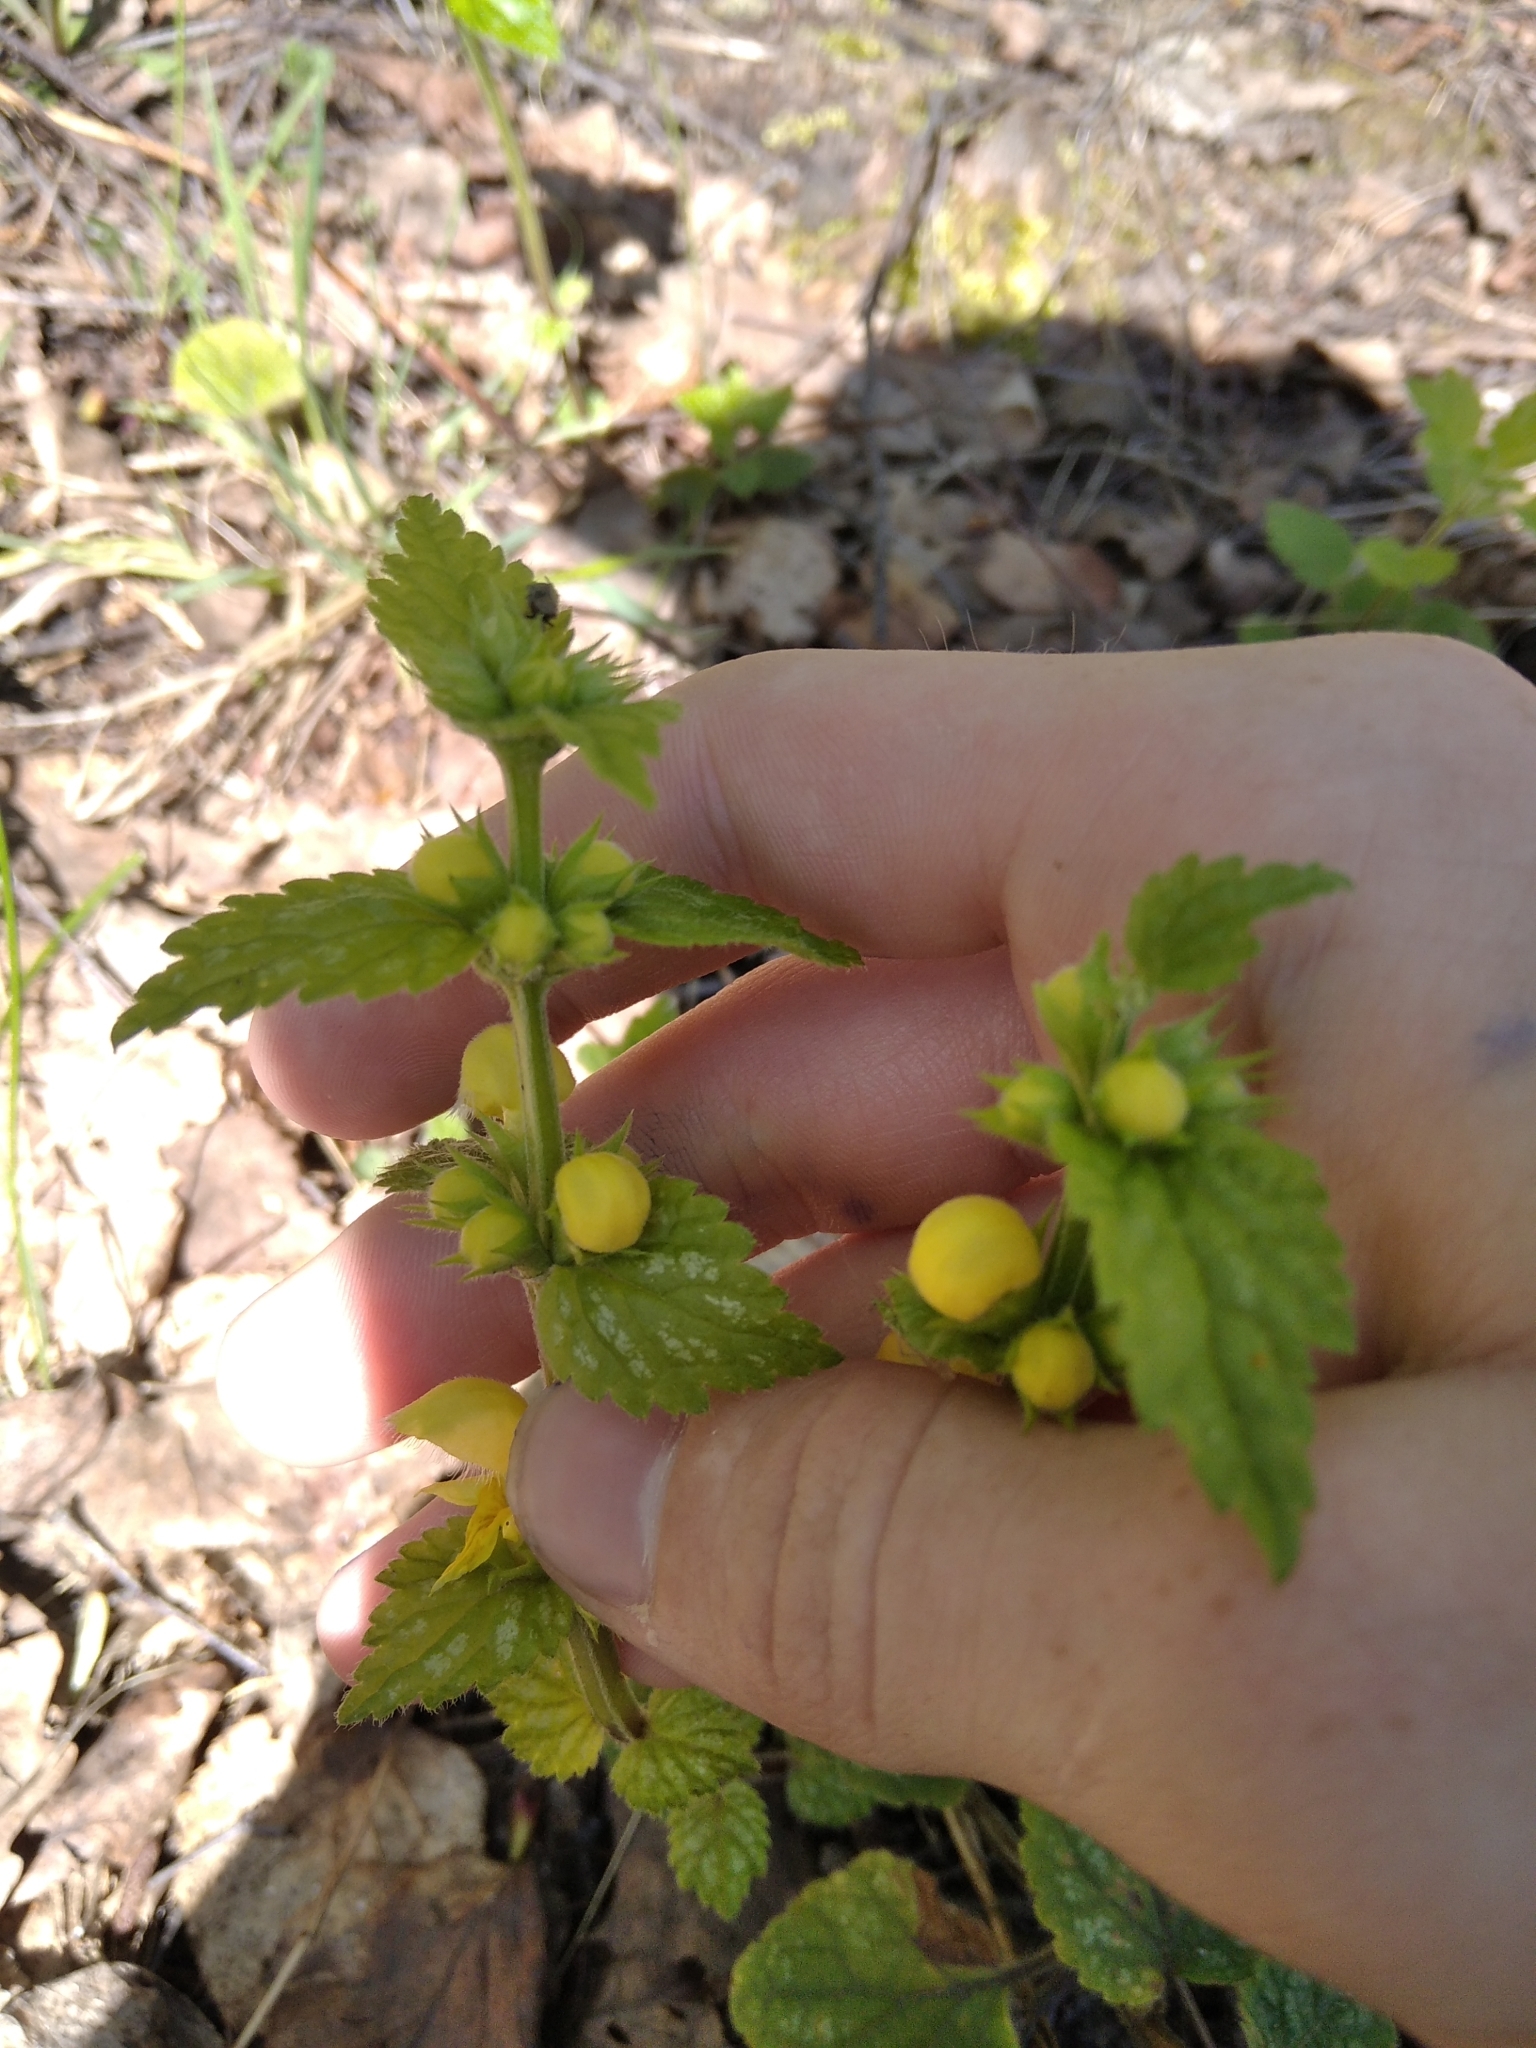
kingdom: Plantae
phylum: Tracheophyta
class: Magnoliopsida
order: Lamiales
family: Lamiaceae
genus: Lamium
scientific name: Lamium galeobdolon
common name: Yellow archangel
